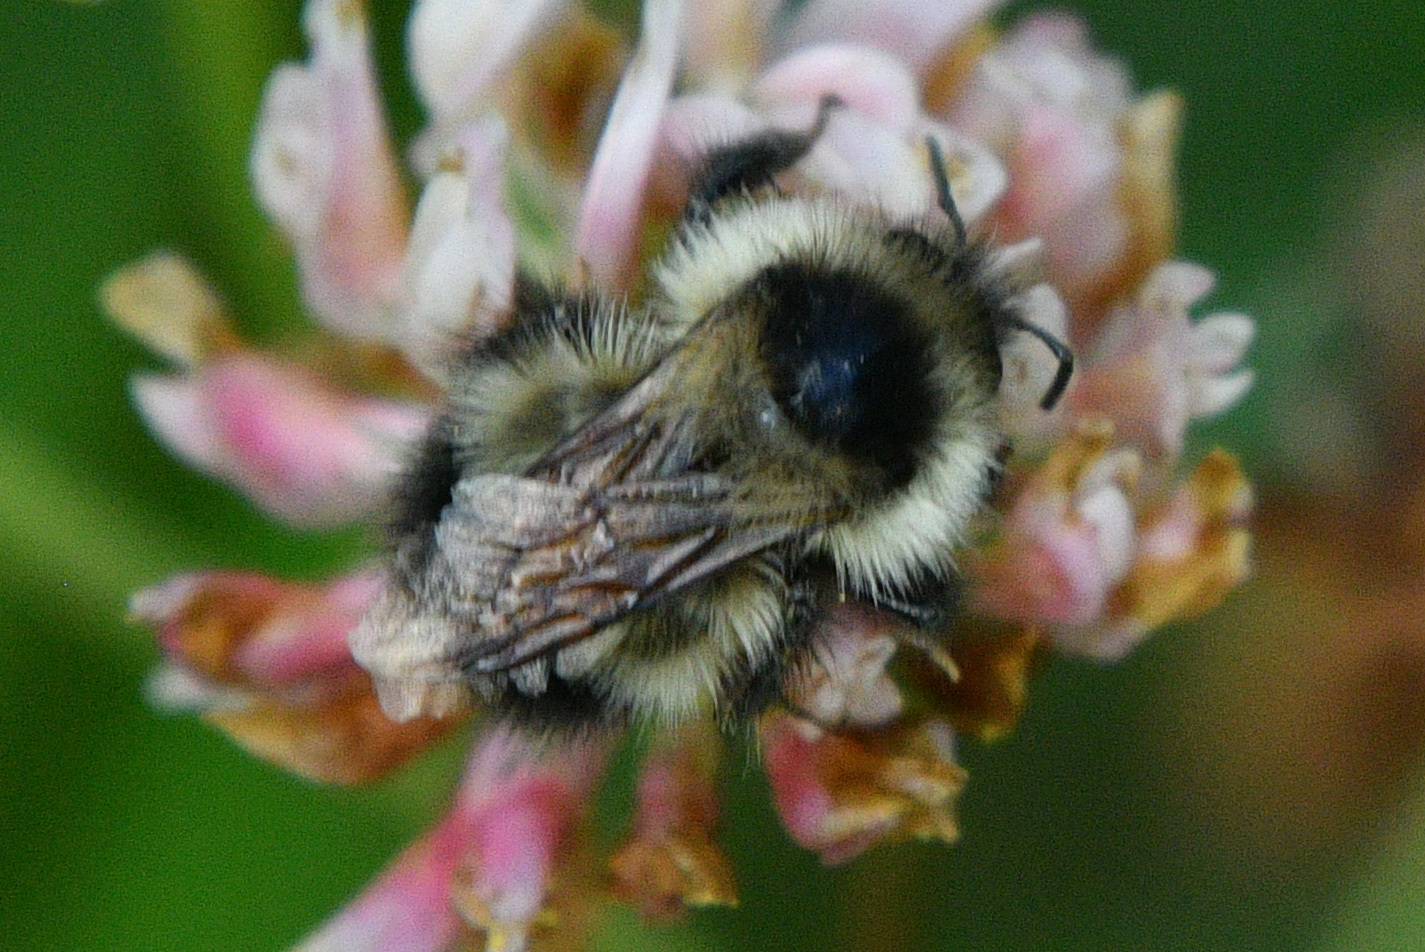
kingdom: Animalia
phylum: Arthropoda
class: Insecta
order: Hymenoptera
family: Apidae
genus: Bombus
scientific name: Bombus frigidus
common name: Frigid bumble bee
